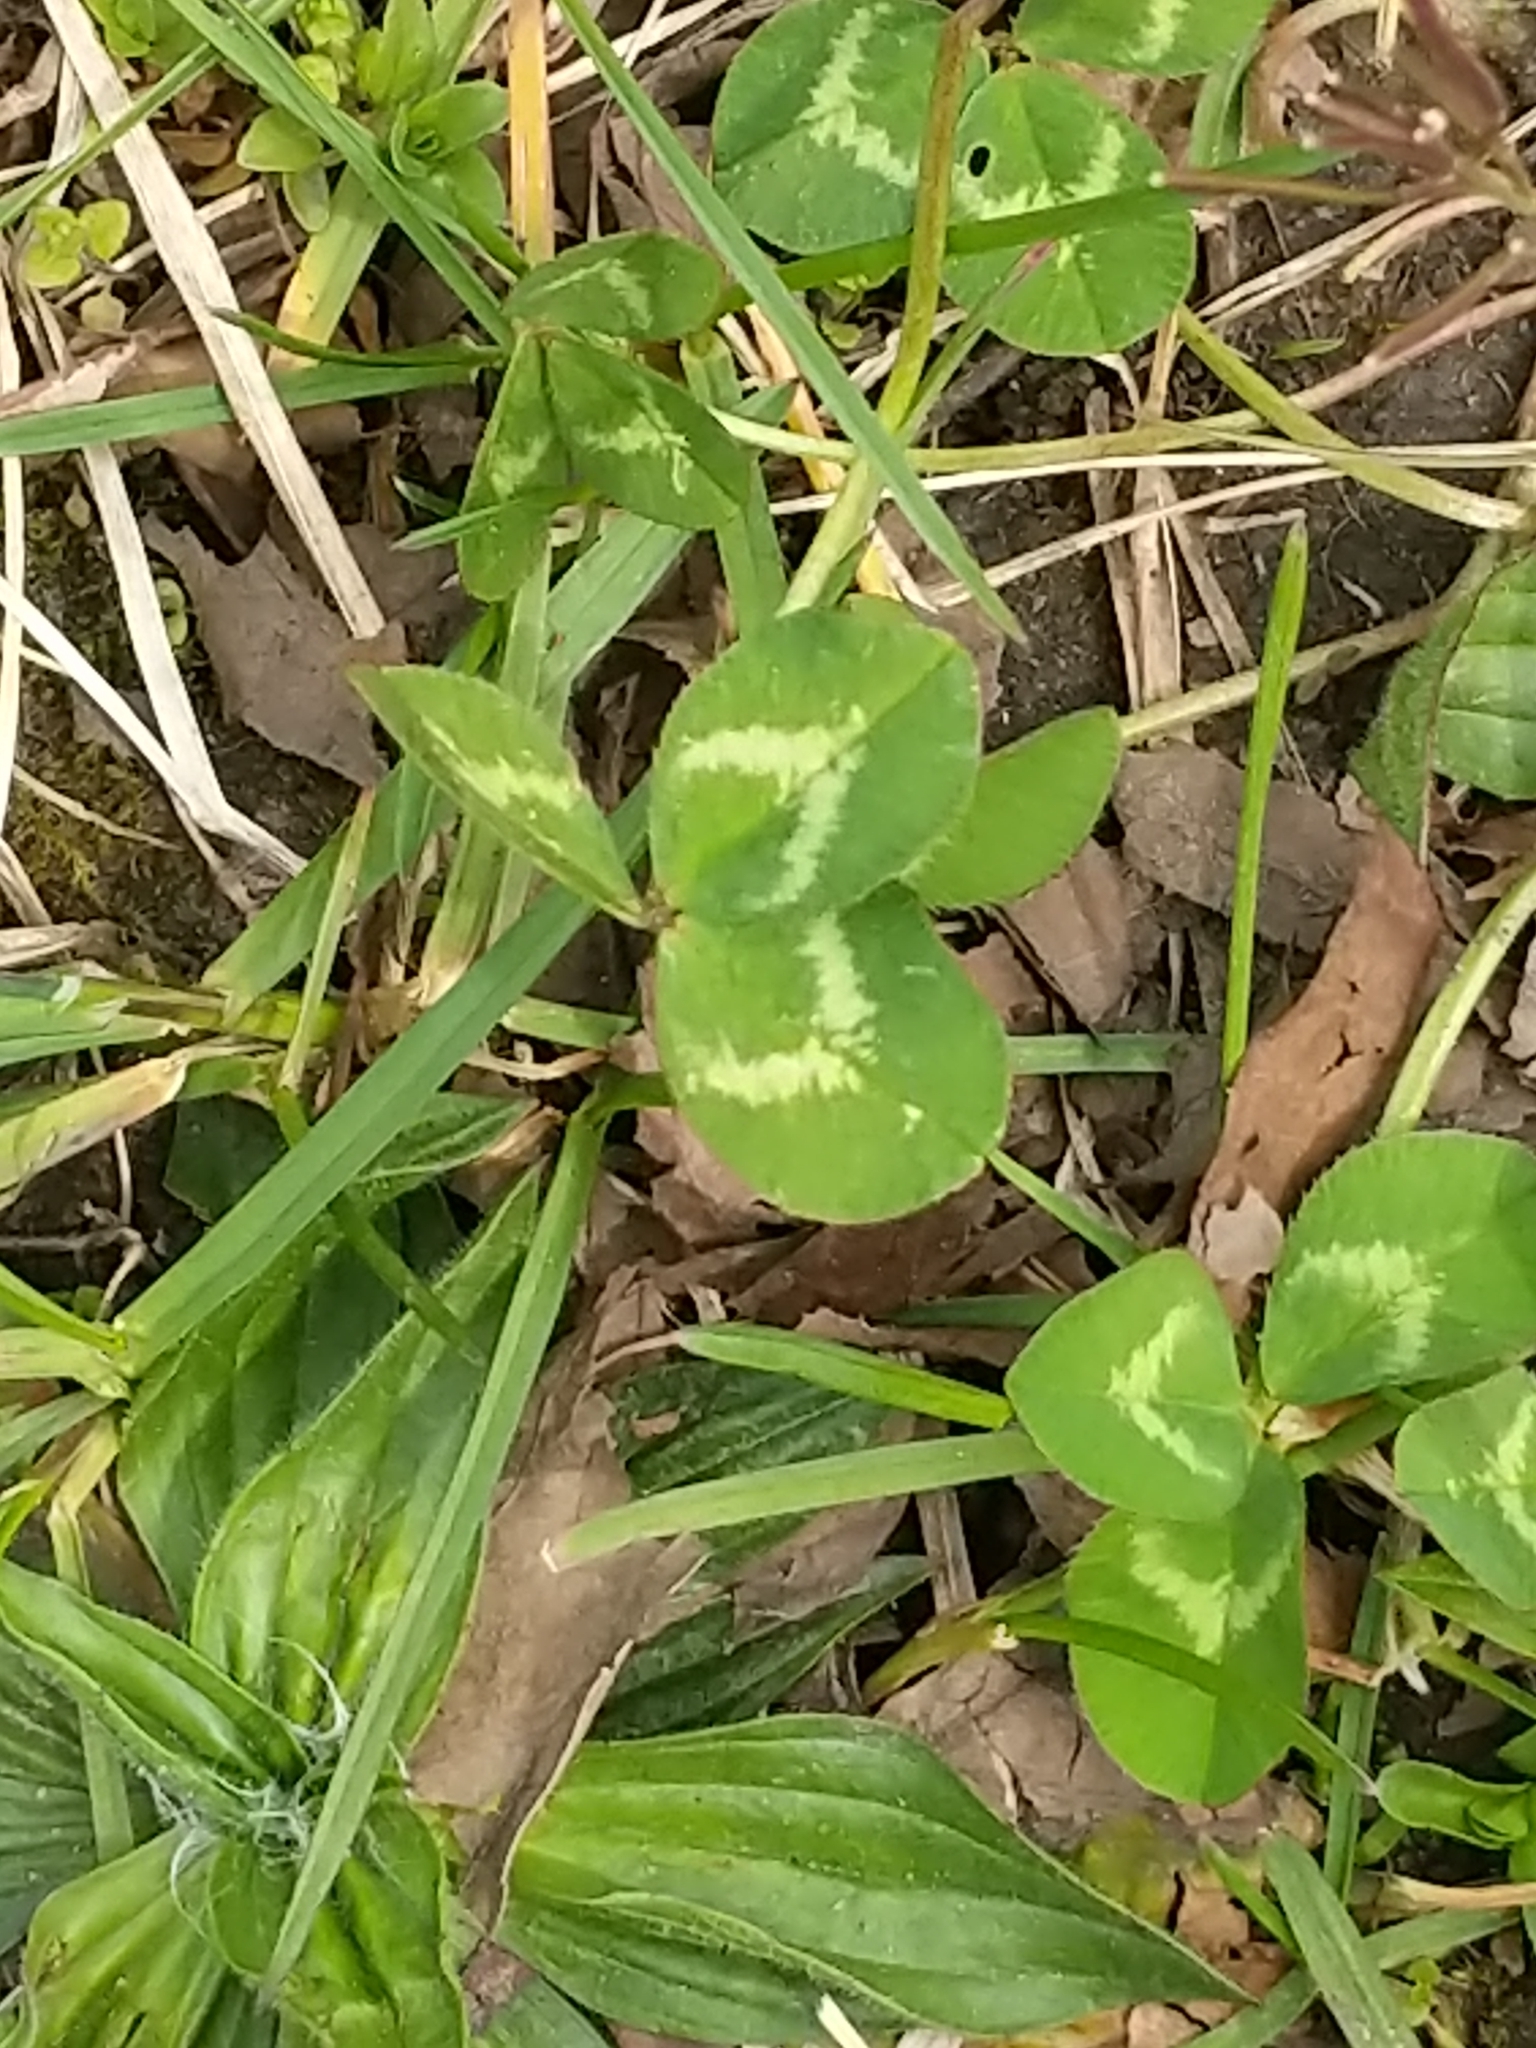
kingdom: Plantae
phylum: Tracheophyta
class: Magnoliopsida
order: Fabales
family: Fabaceae
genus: Trifolium
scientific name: Trifolium repens
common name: White clover
